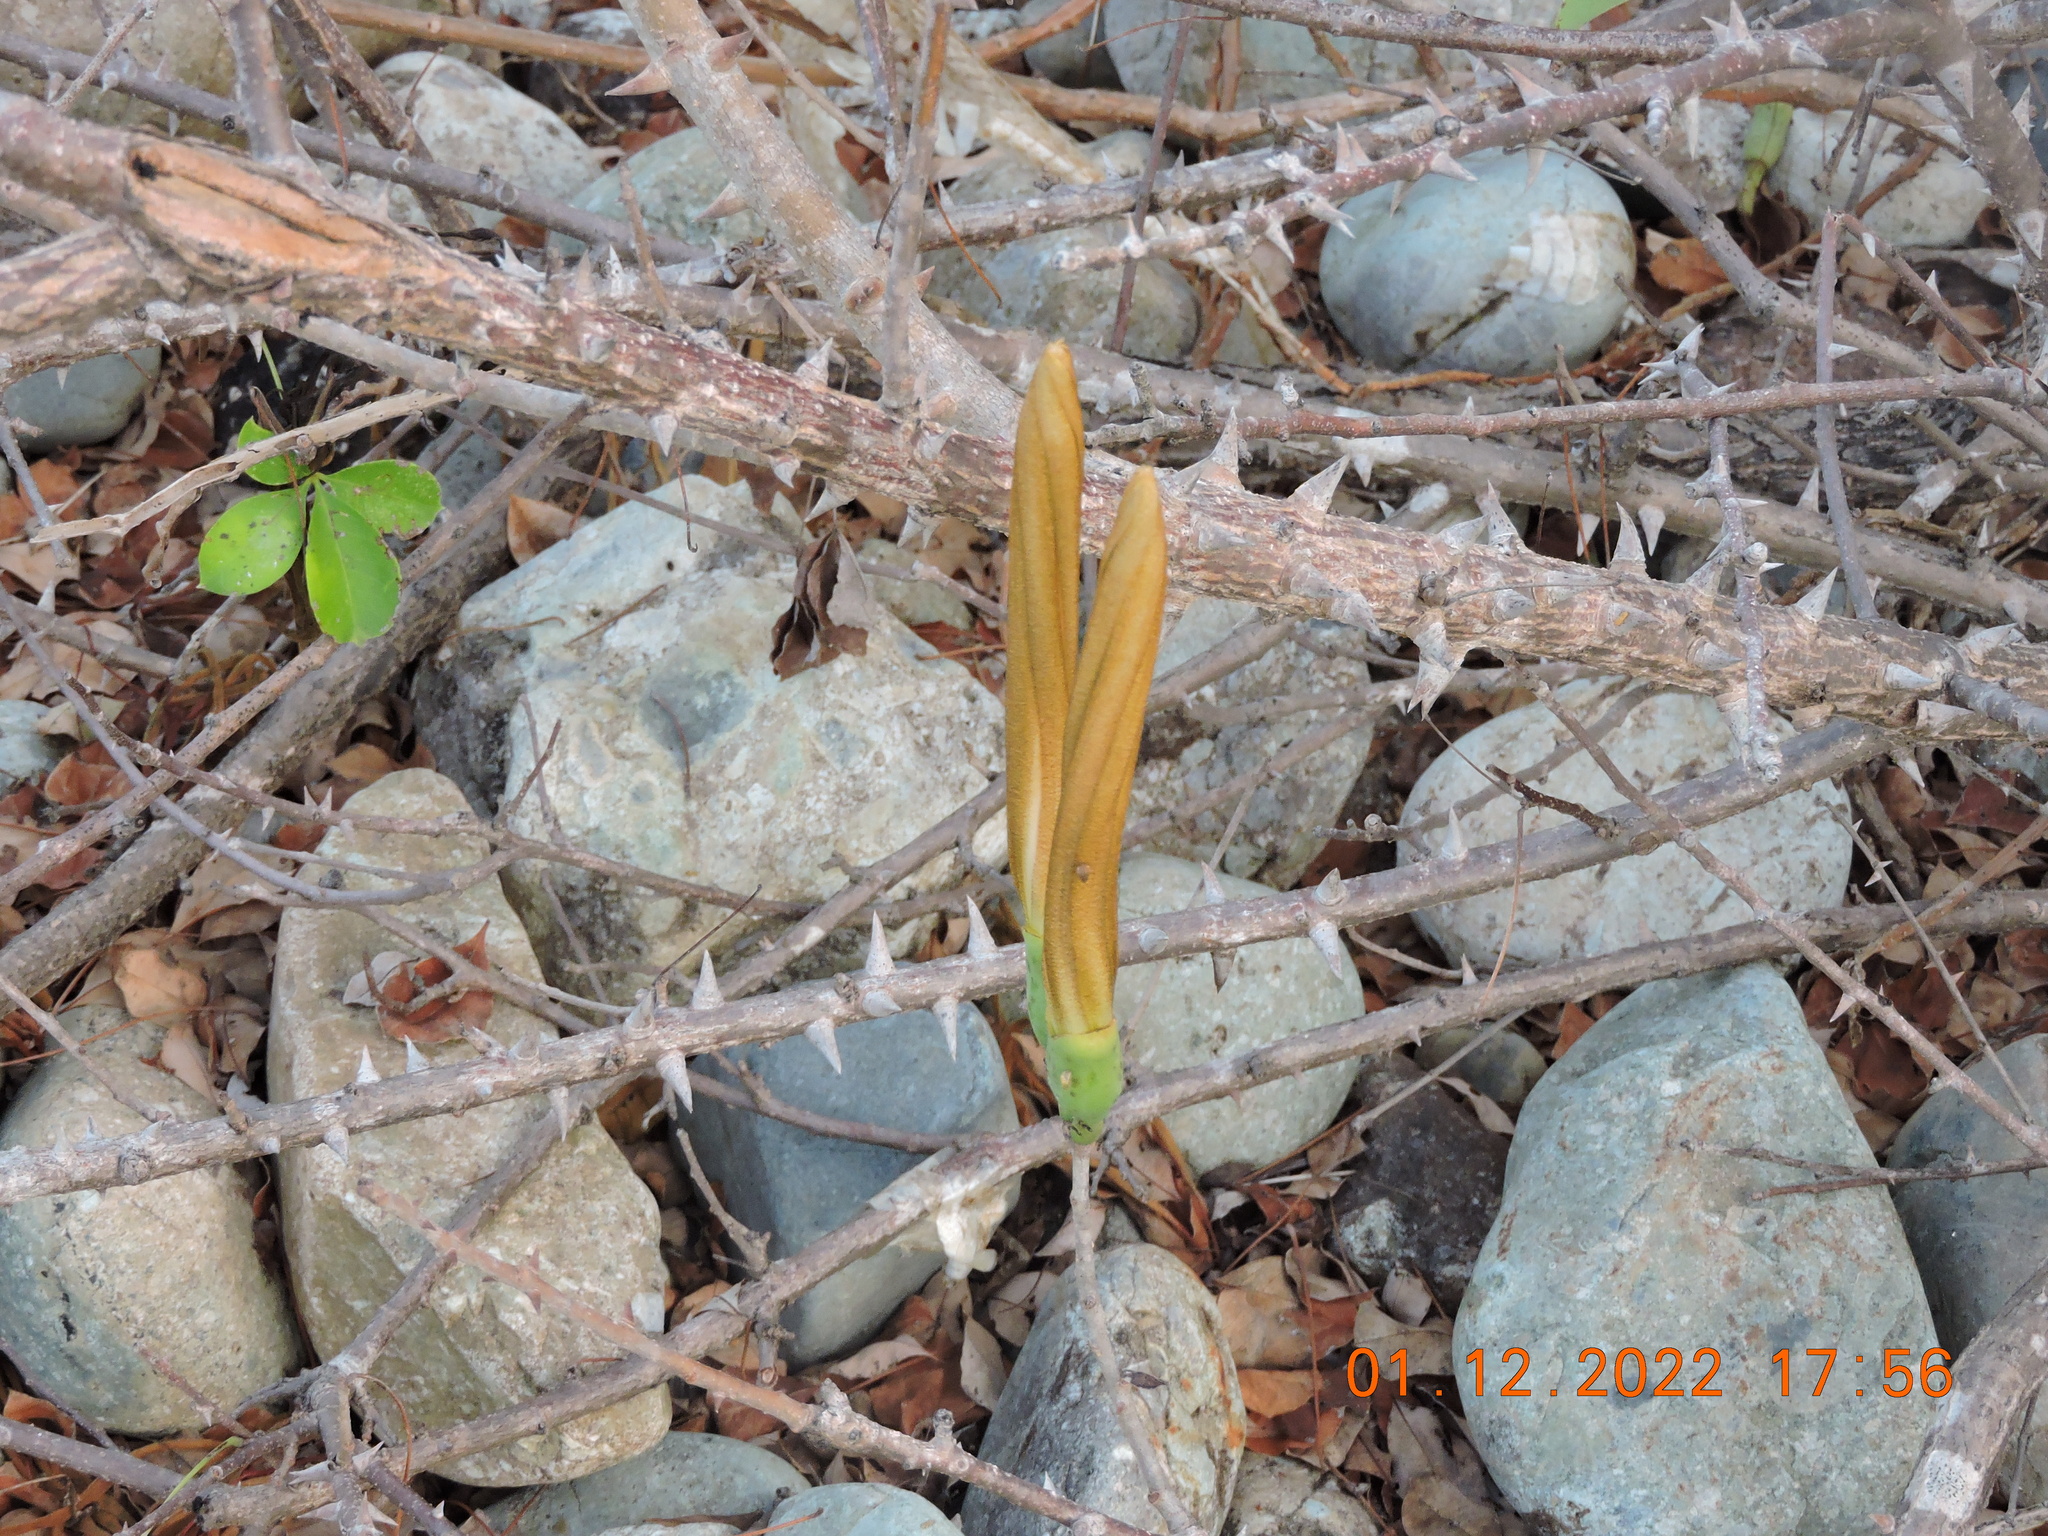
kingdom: Plantae
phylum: Tracheophyta
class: Magnoliopsida
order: Malvales
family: Malvaceae
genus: Ceiba
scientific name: Ceiba aesculifolia
